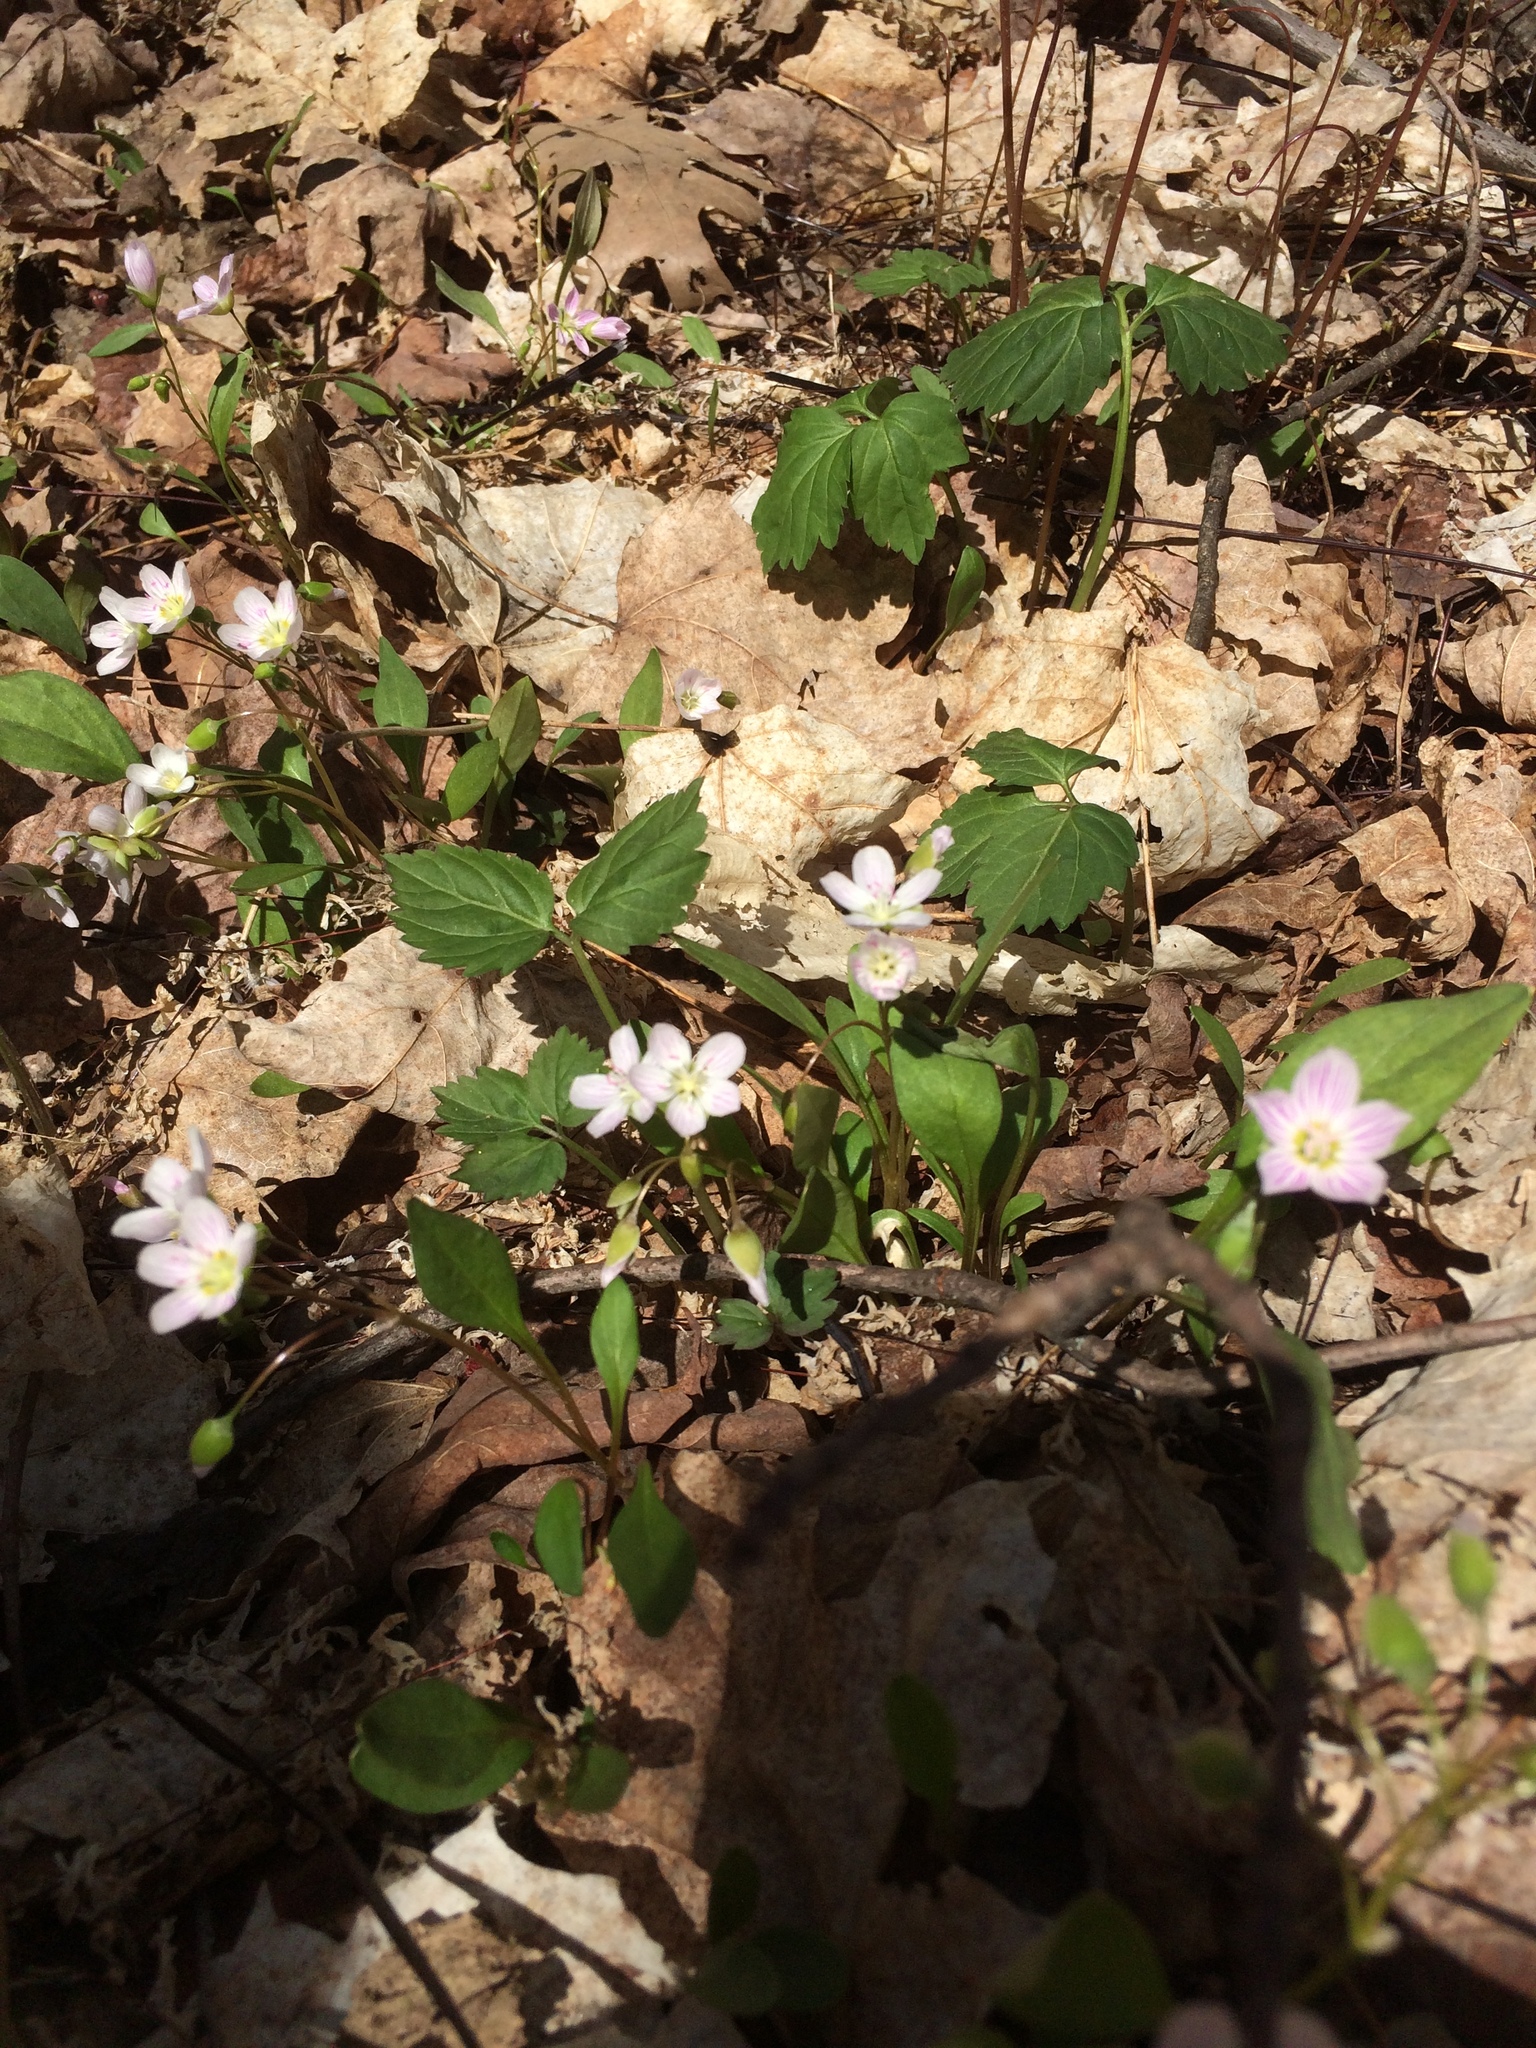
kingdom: Plantae
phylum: Tracheophyta
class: Magnoliopsida
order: Caryophyllales
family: Montiaceae
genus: Claytonia
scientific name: Claytonia caroliniana
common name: Carolina spring beauty
